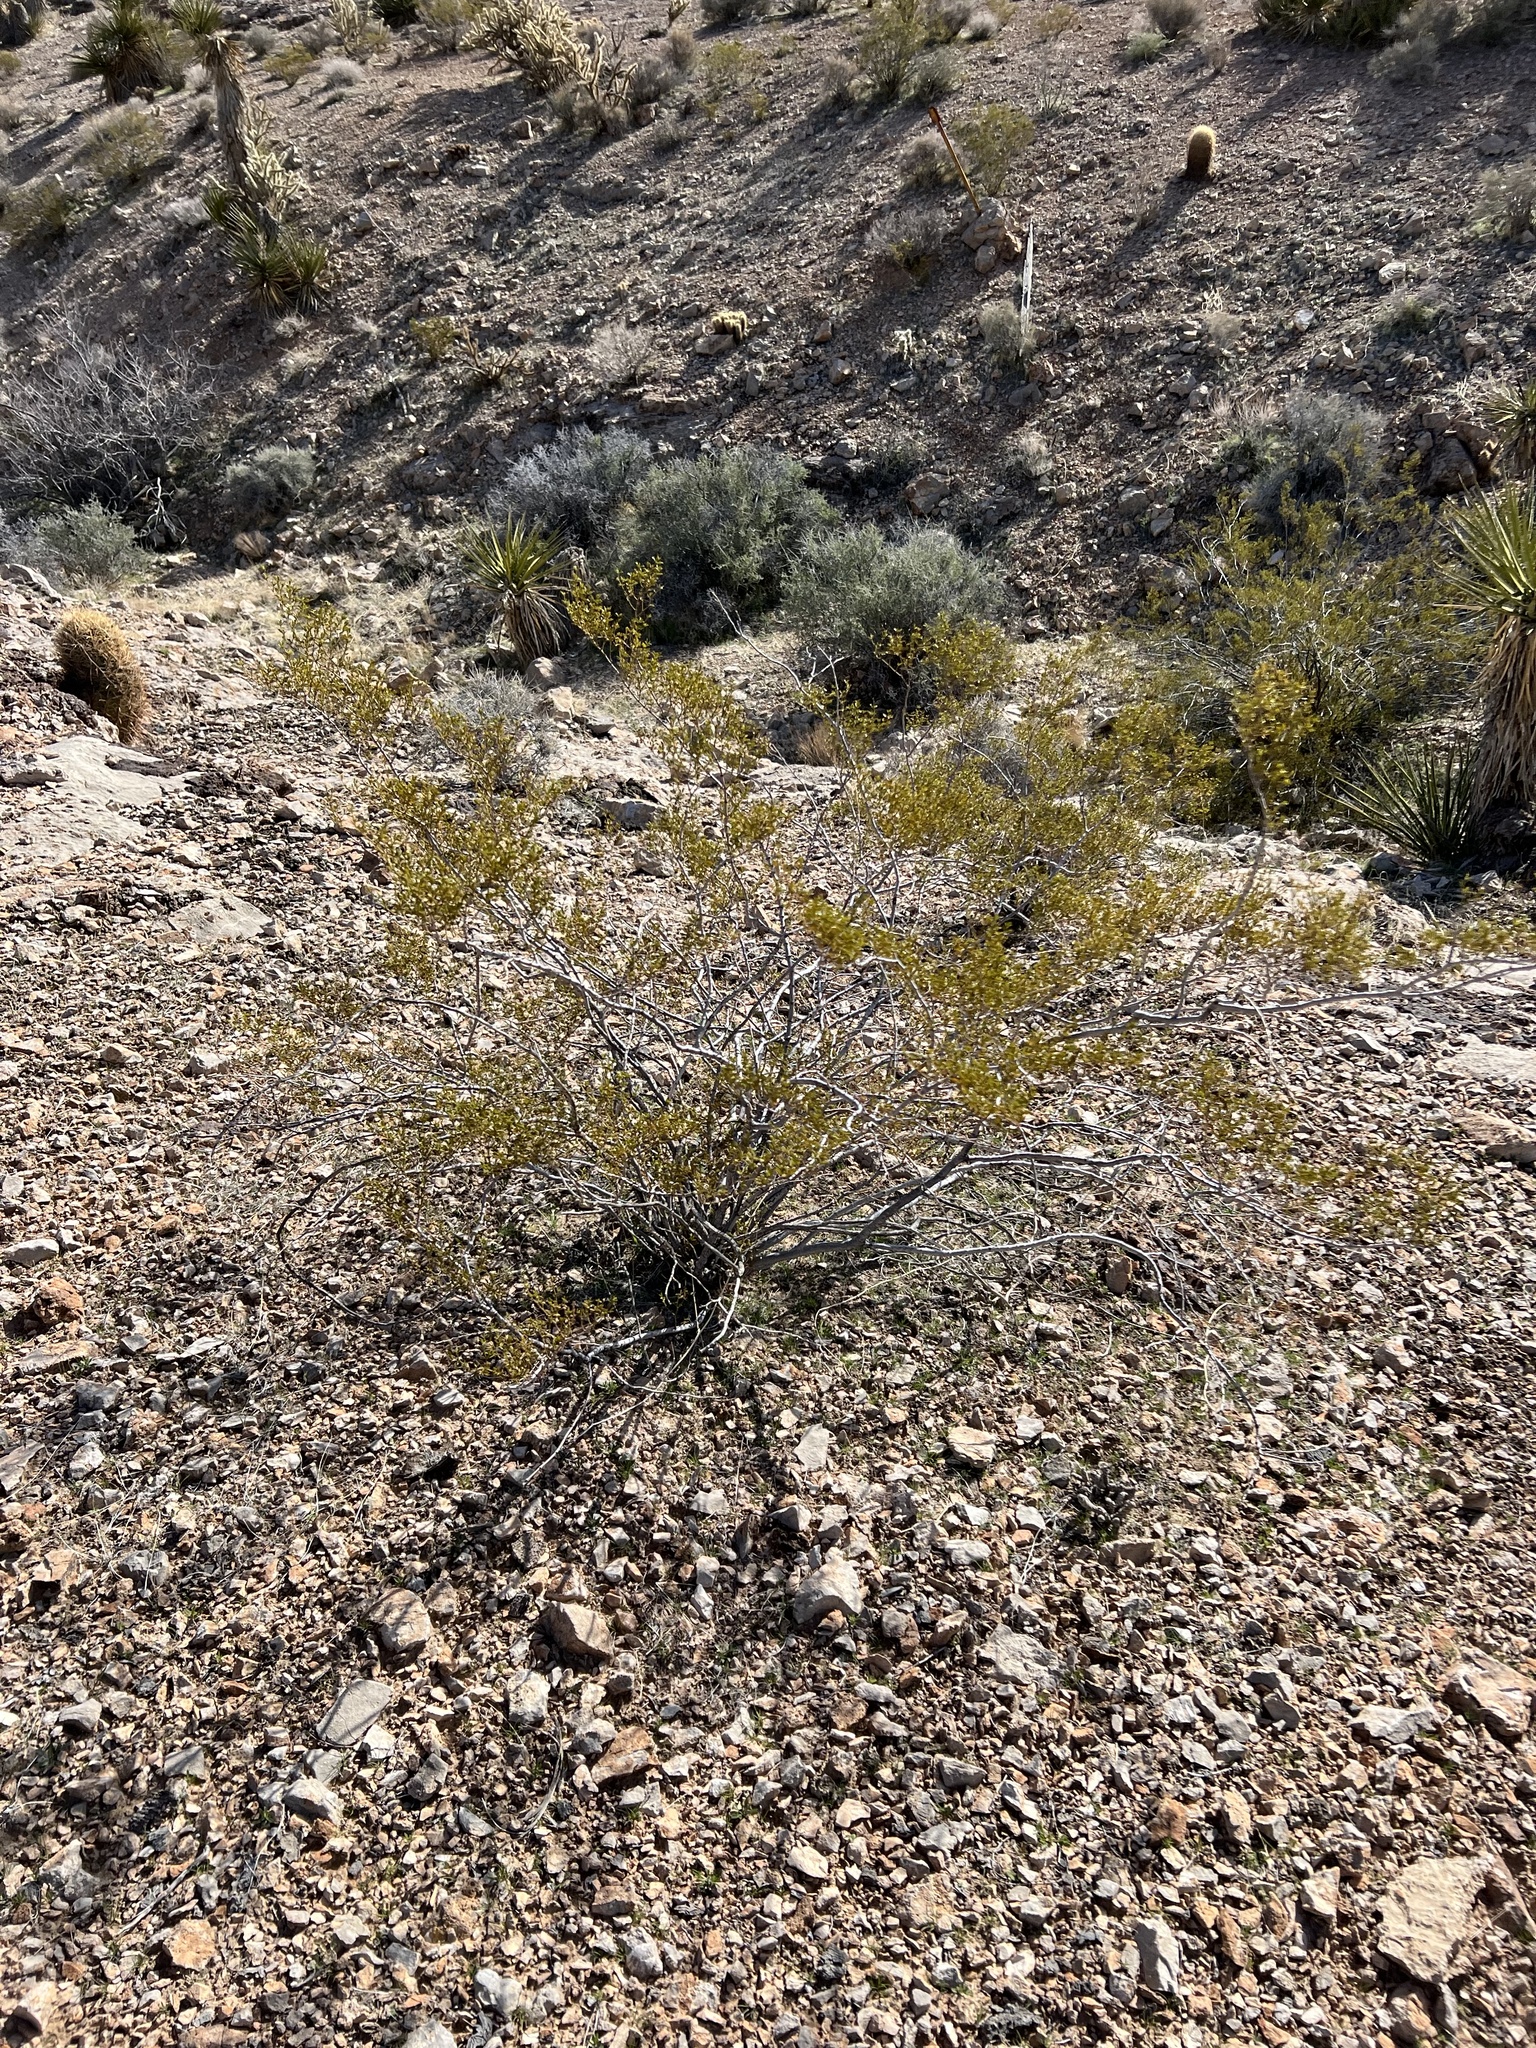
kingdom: Plantae
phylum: Tracheophyta
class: Magnoliopsida
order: Zygophyllales
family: Zygophyllaceae
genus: Larrea
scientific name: Larrea tridentata
